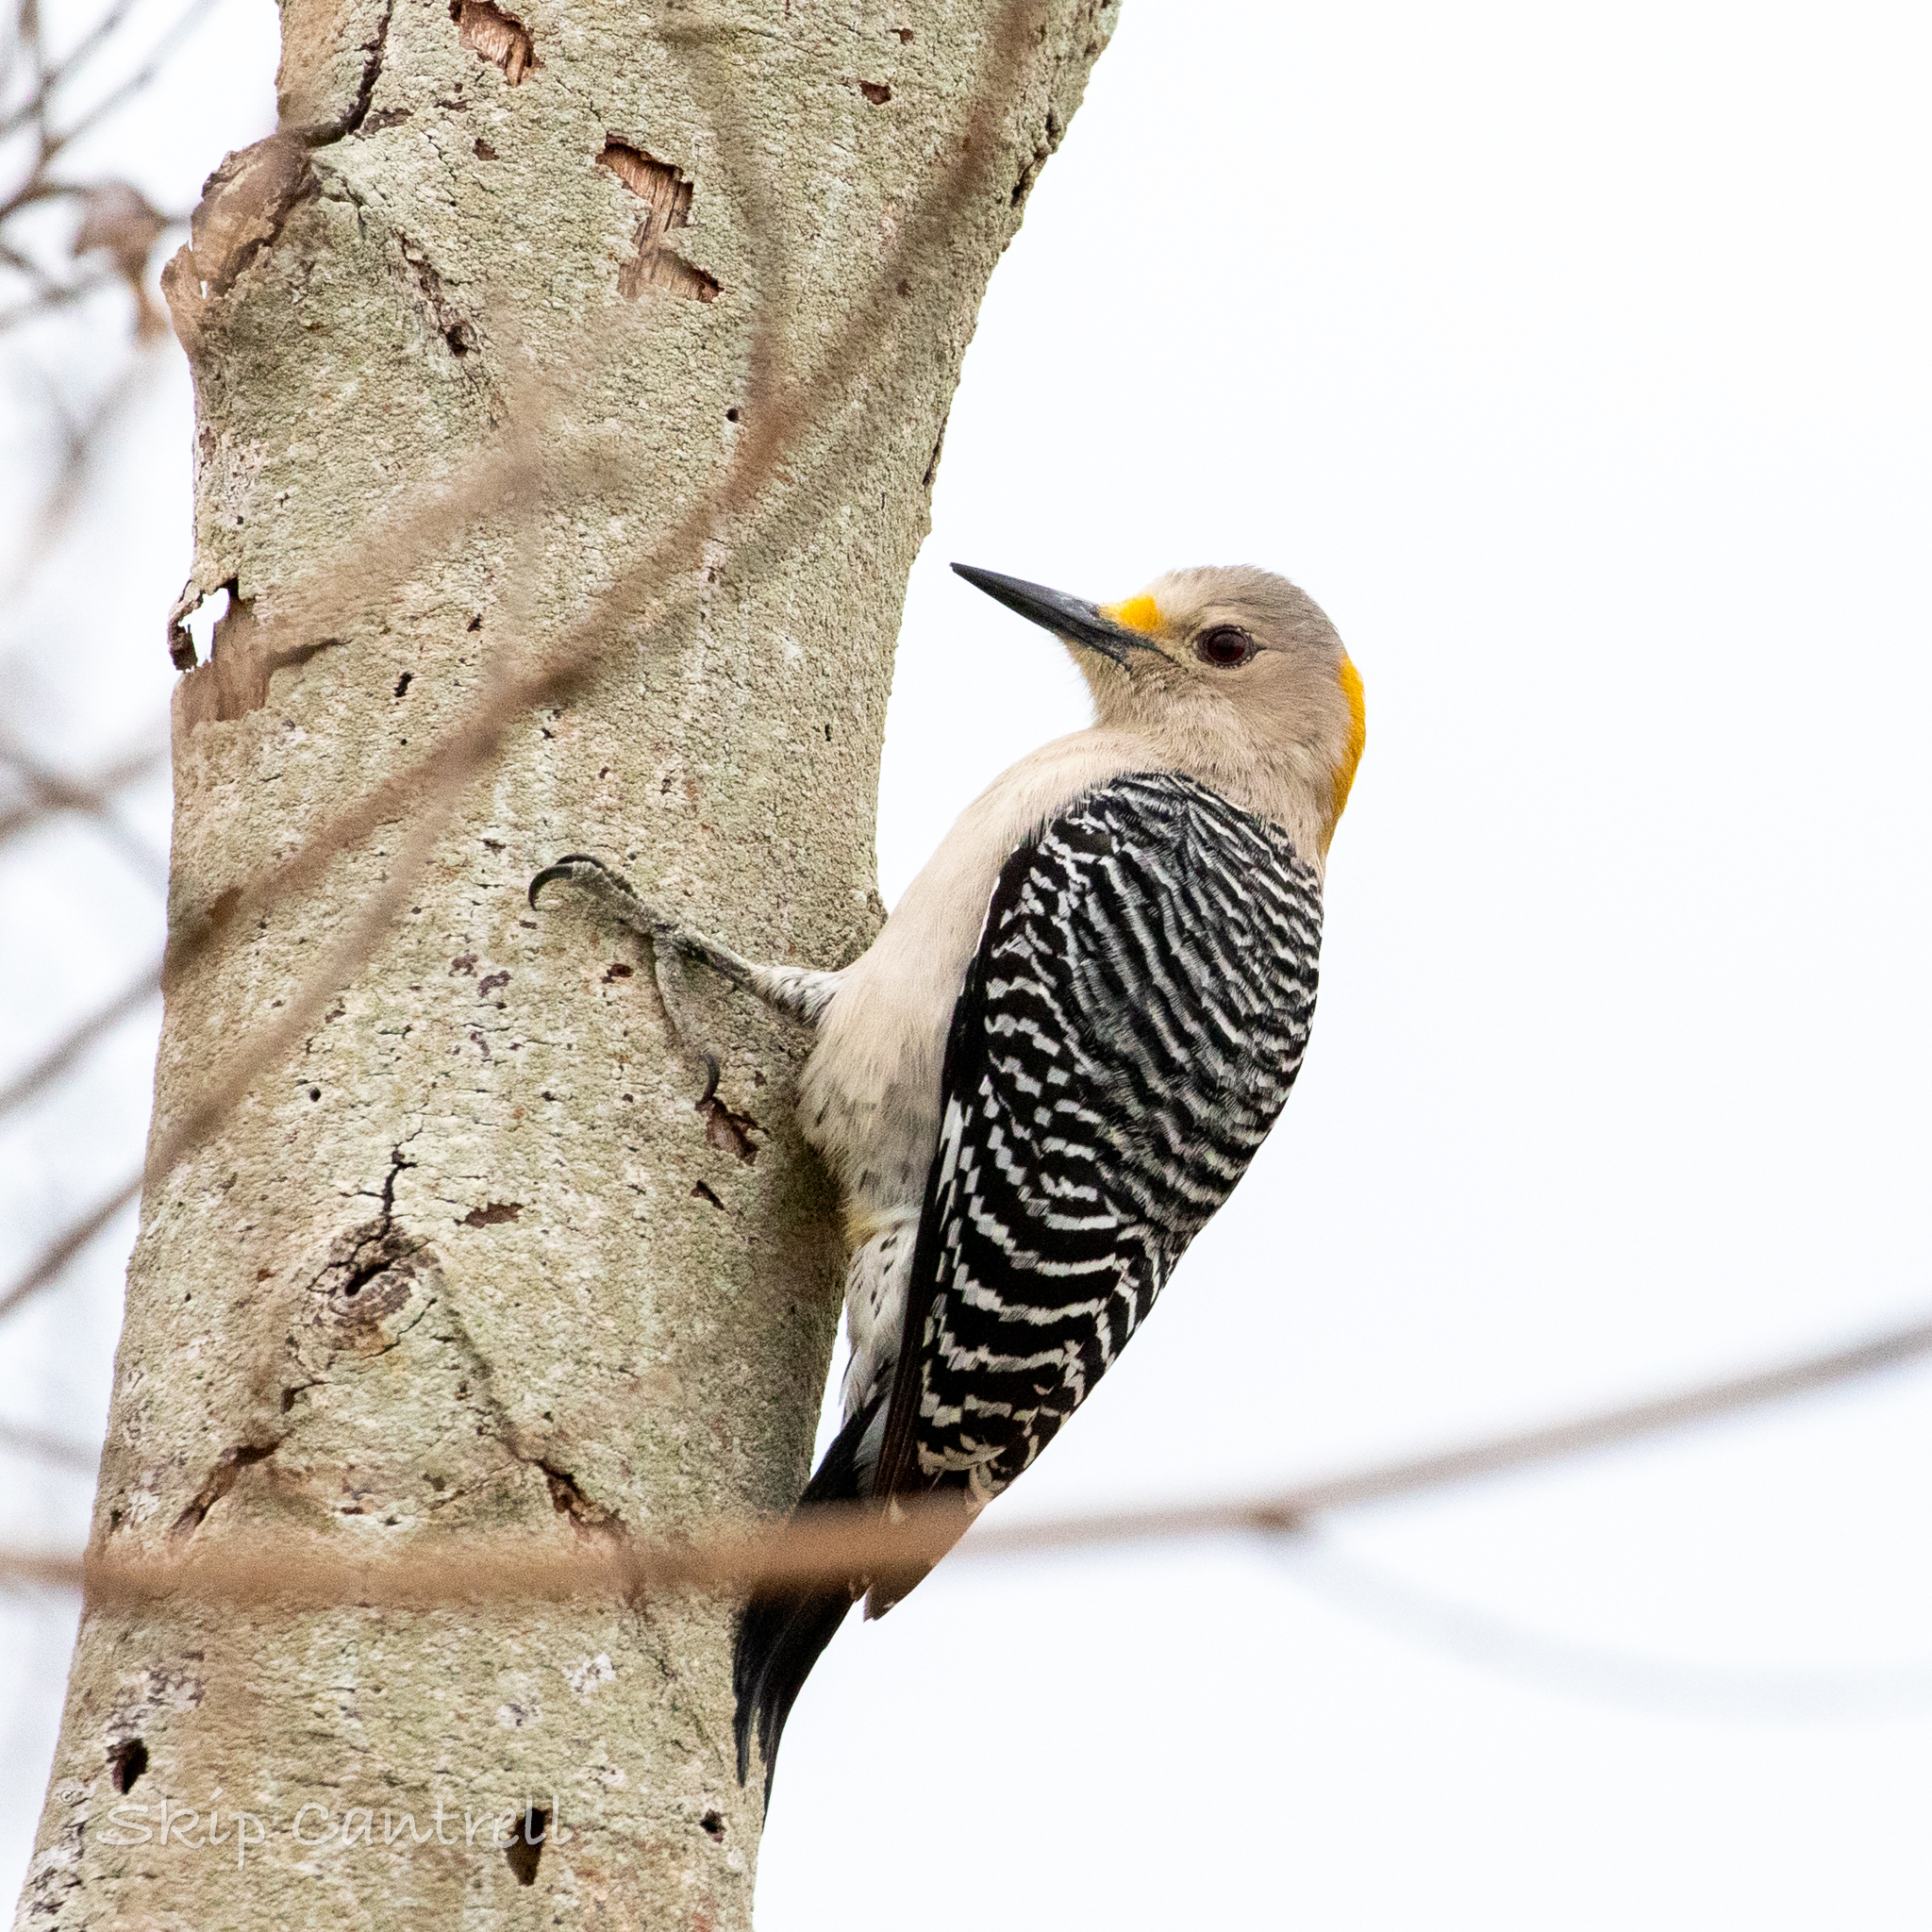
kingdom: Animalia
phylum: Chordata
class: Aves
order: Piciformes
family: Picidae
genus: Melanerpes
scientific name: Melanerpes aurifrons
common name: Golden-fronted woodpecker
